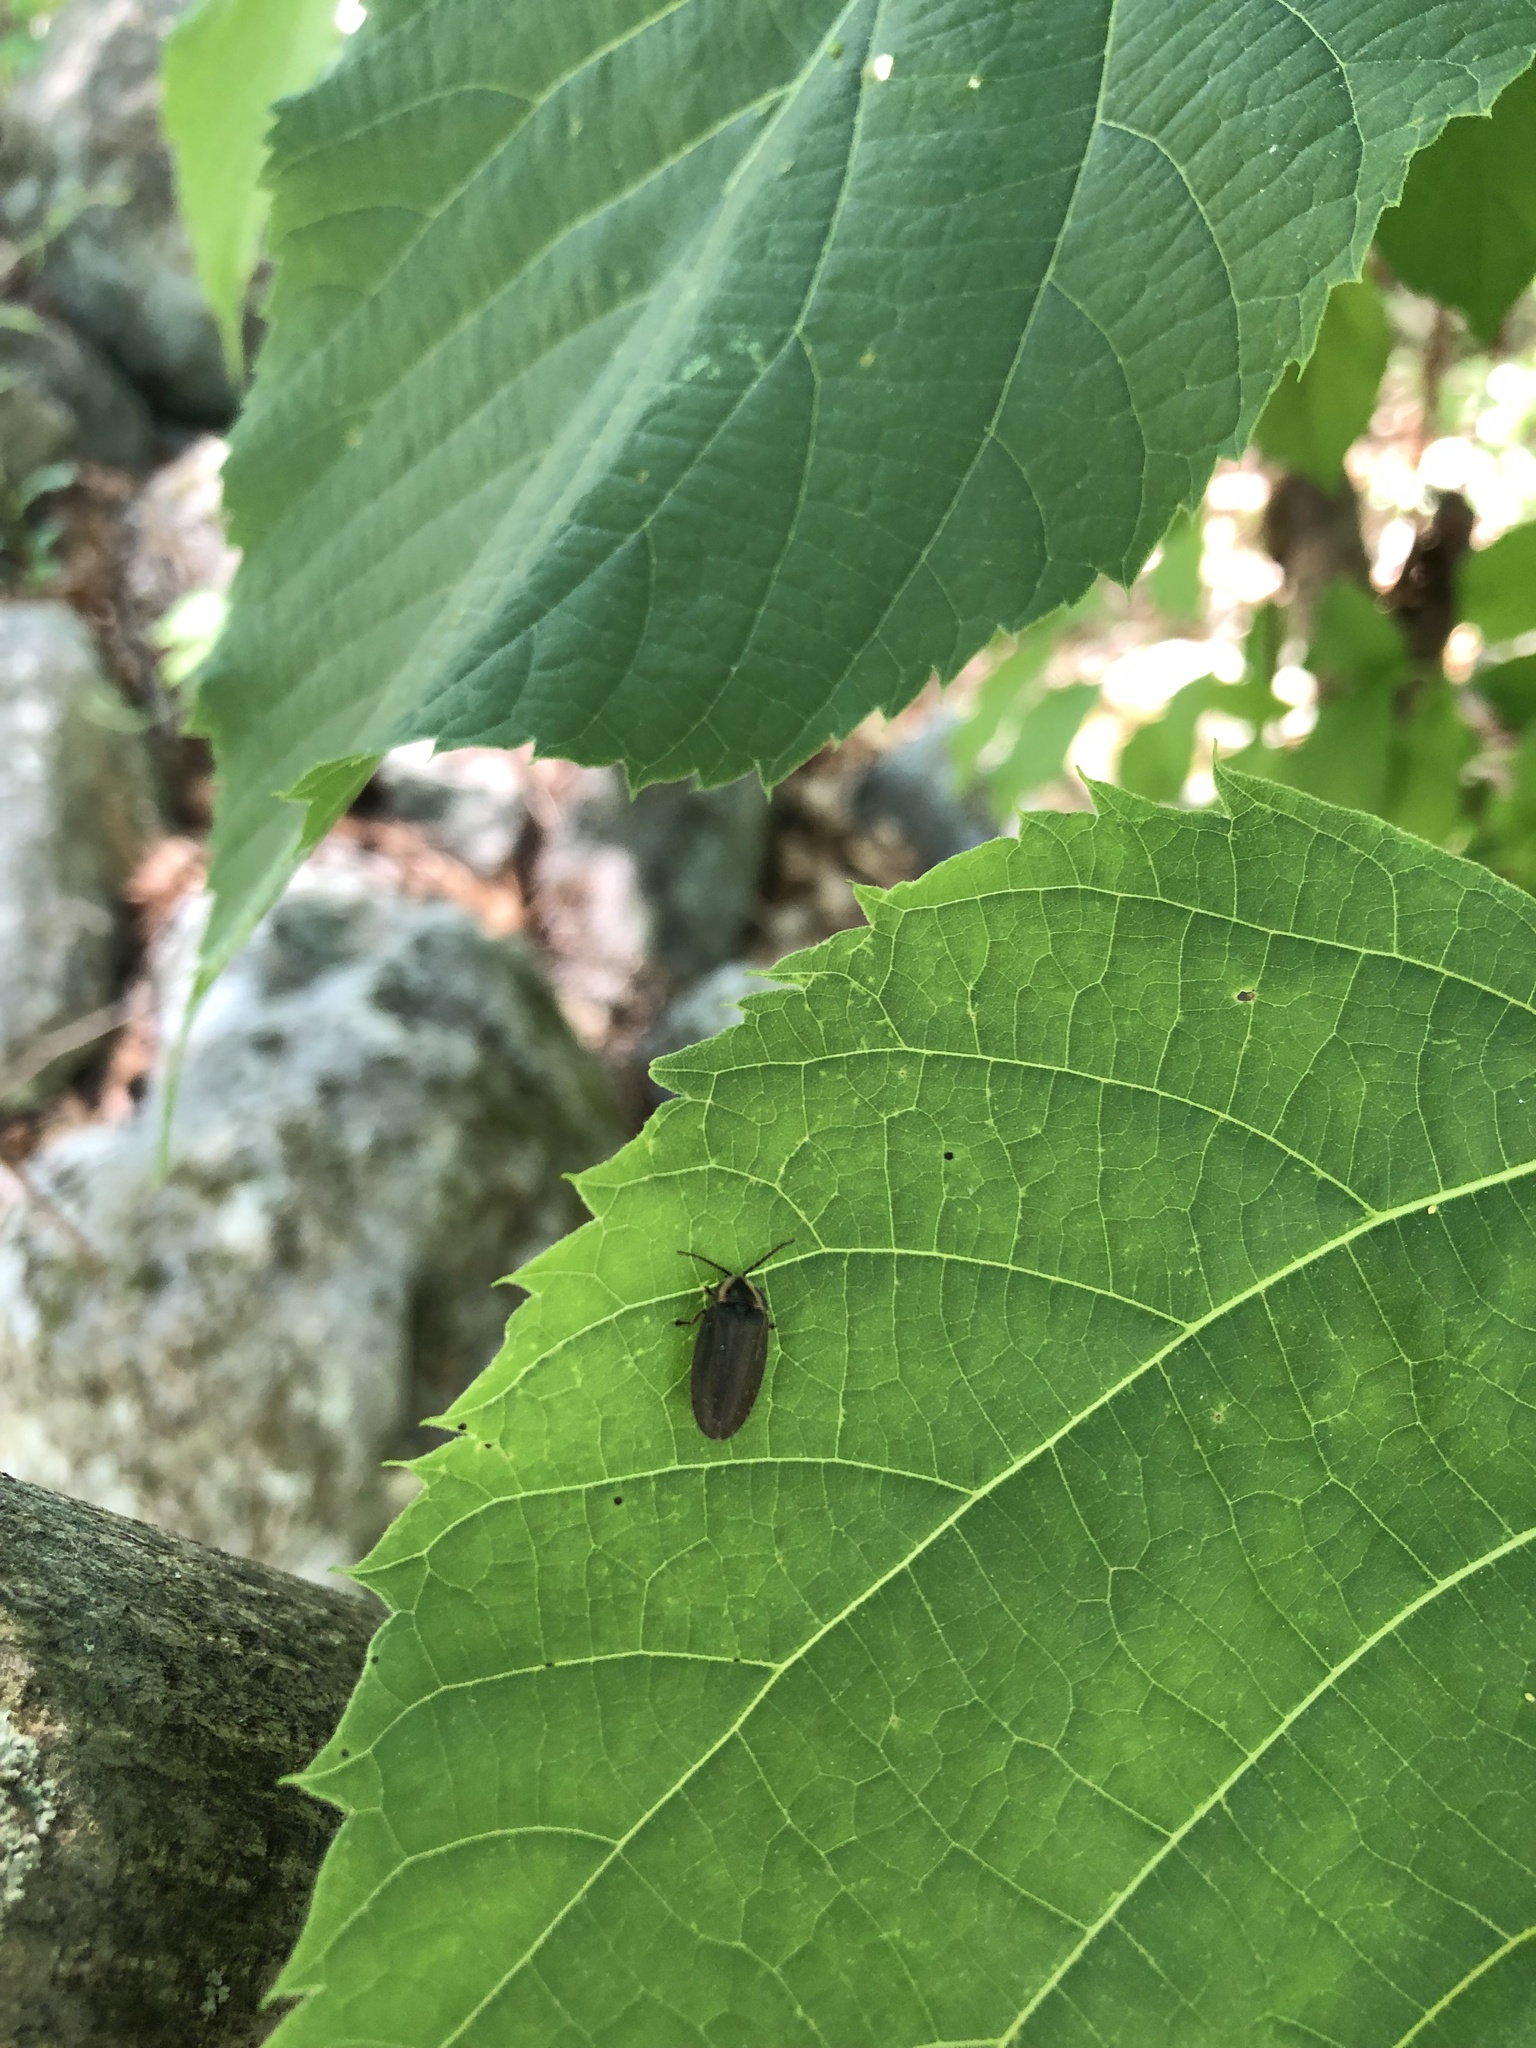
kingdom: Animalia
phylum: Arthropoda
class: Insecta
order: Coleoptera
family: Lampyridae
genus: Photinus
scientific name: Photinus corrusca
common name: Winter firefly
